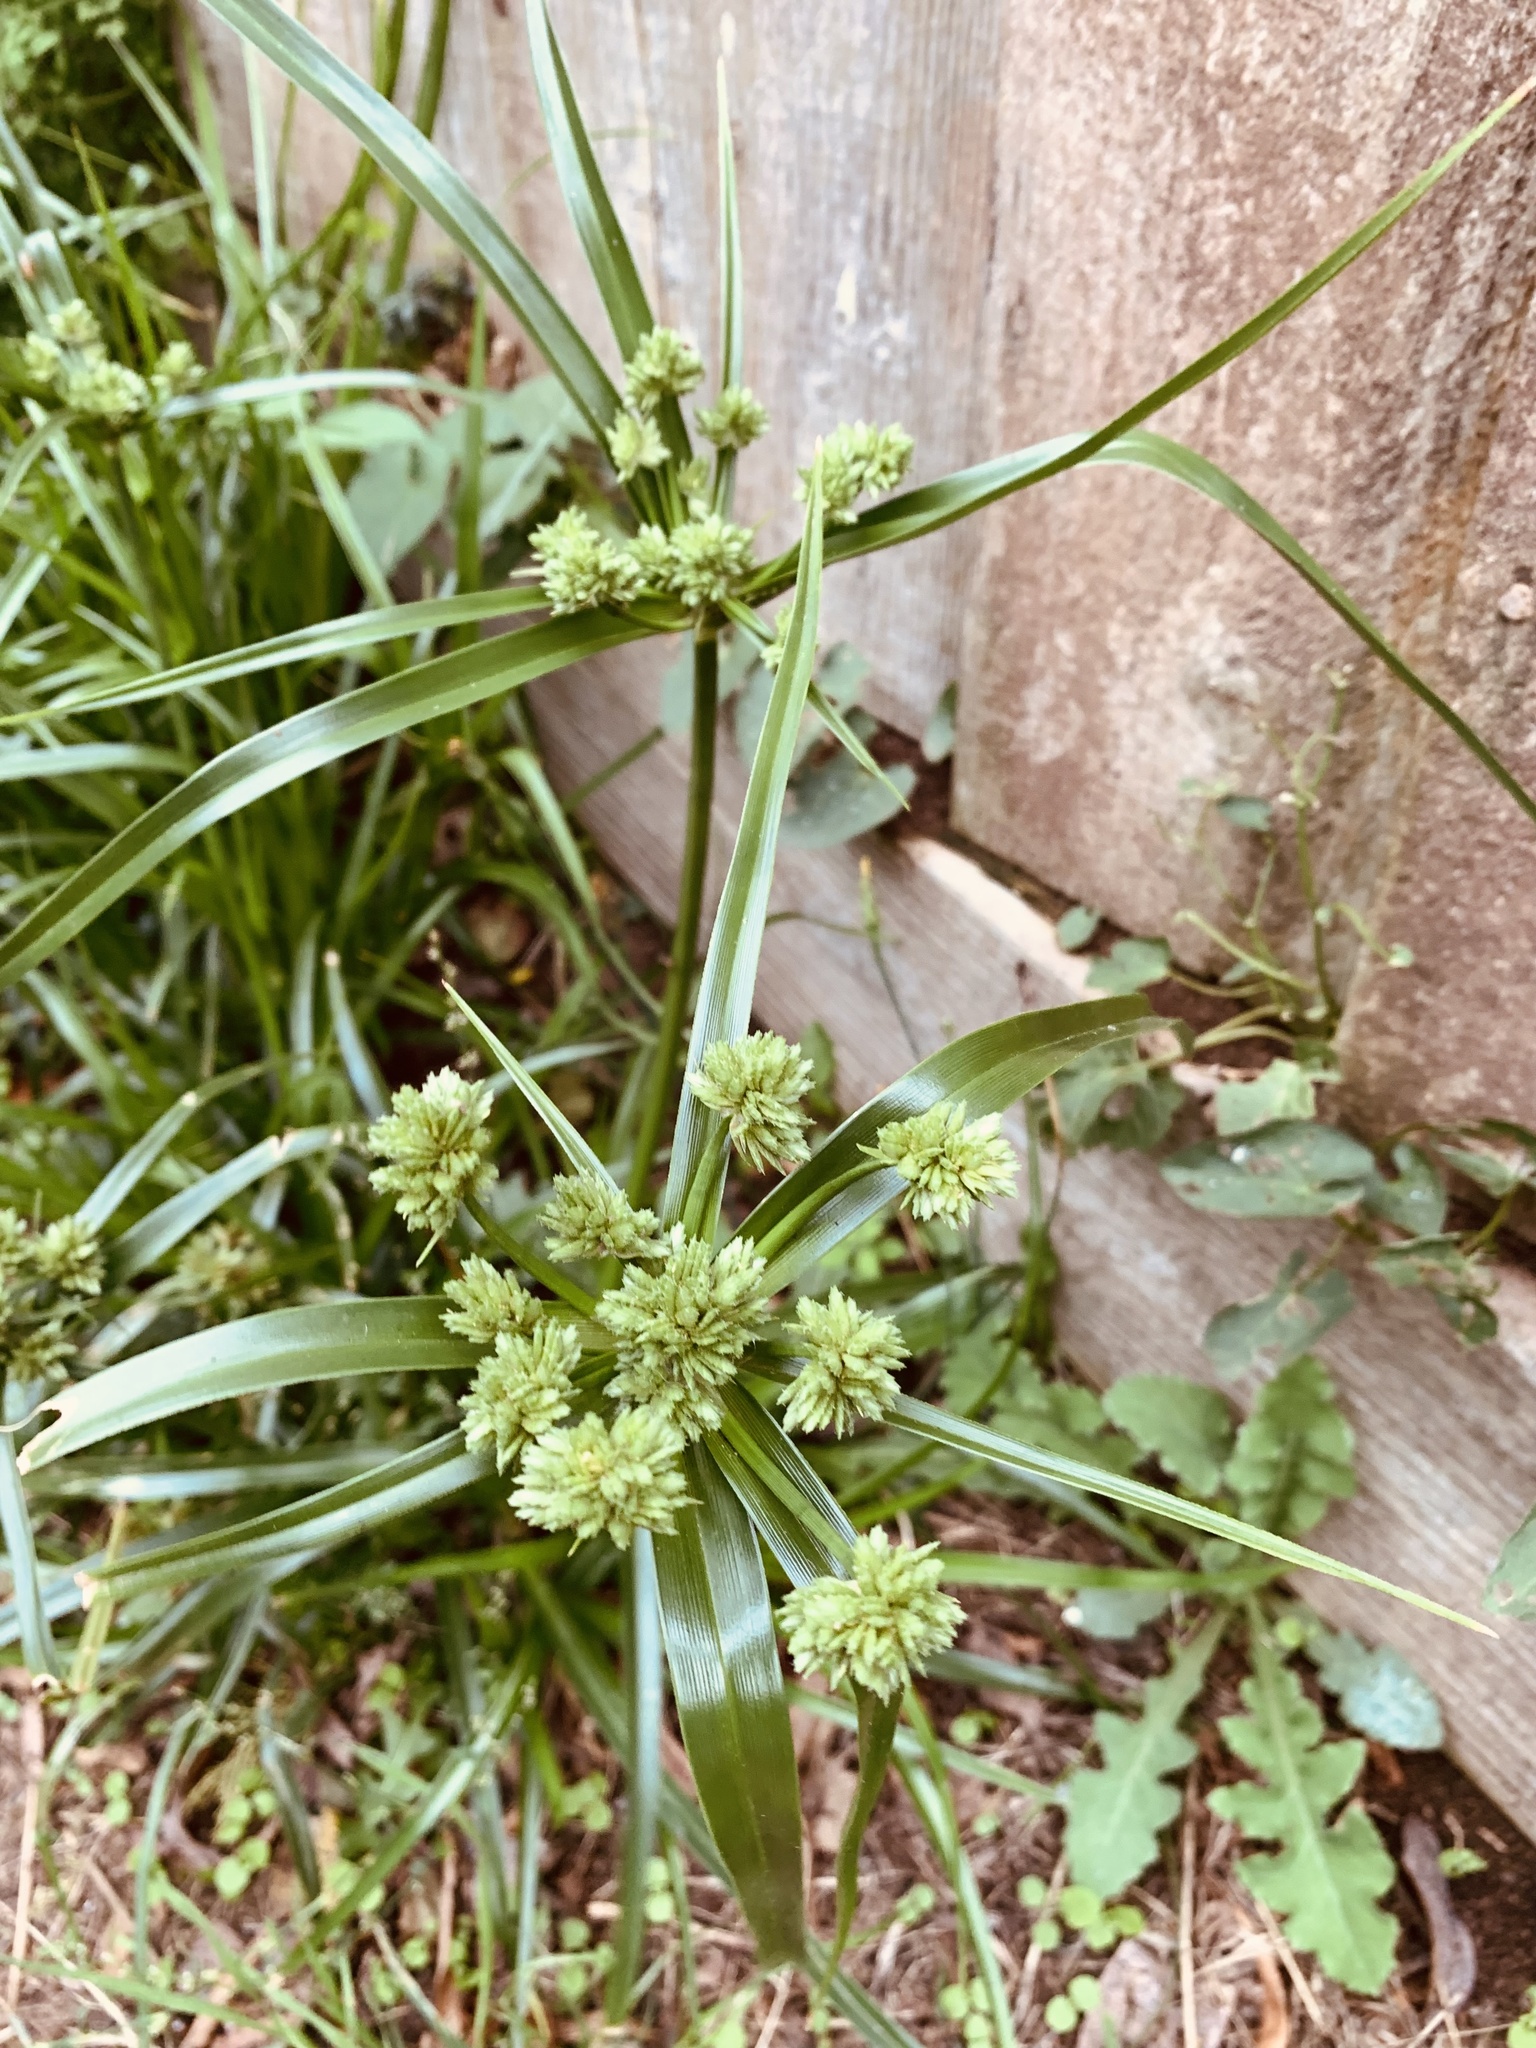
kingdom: Plantae
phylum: Tracheophyta
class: Liliopsida
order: Poales
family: Cyperaceae
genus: Cyperus
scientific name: Cyperus eragrostis
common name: Tall flatsedge
